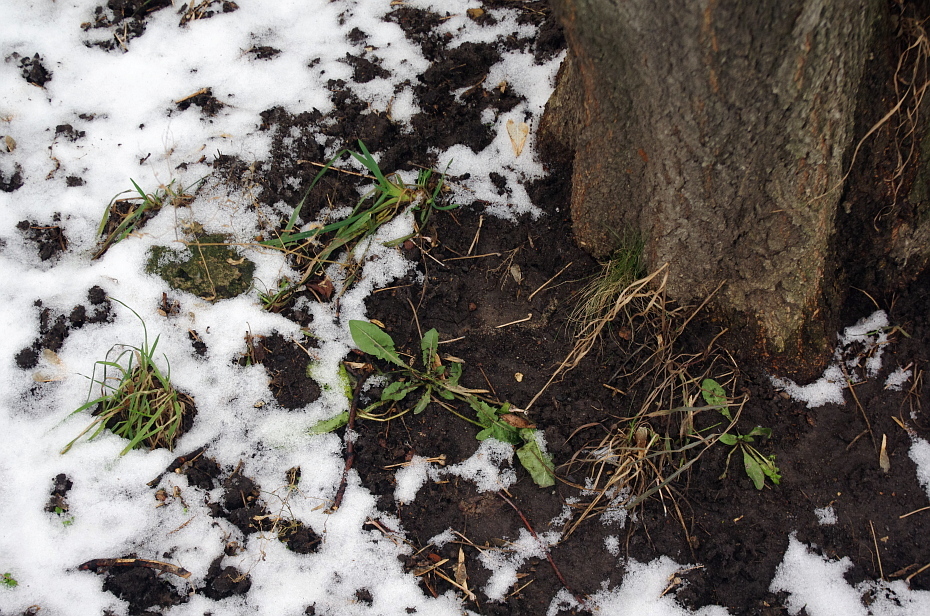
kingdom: Plantae
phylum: Tracheophyta
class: Magnoliopsida
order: Asterales
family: Asteraceae
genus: Taraxacum
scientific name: Taraxacum officinale
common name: Common dandelion
